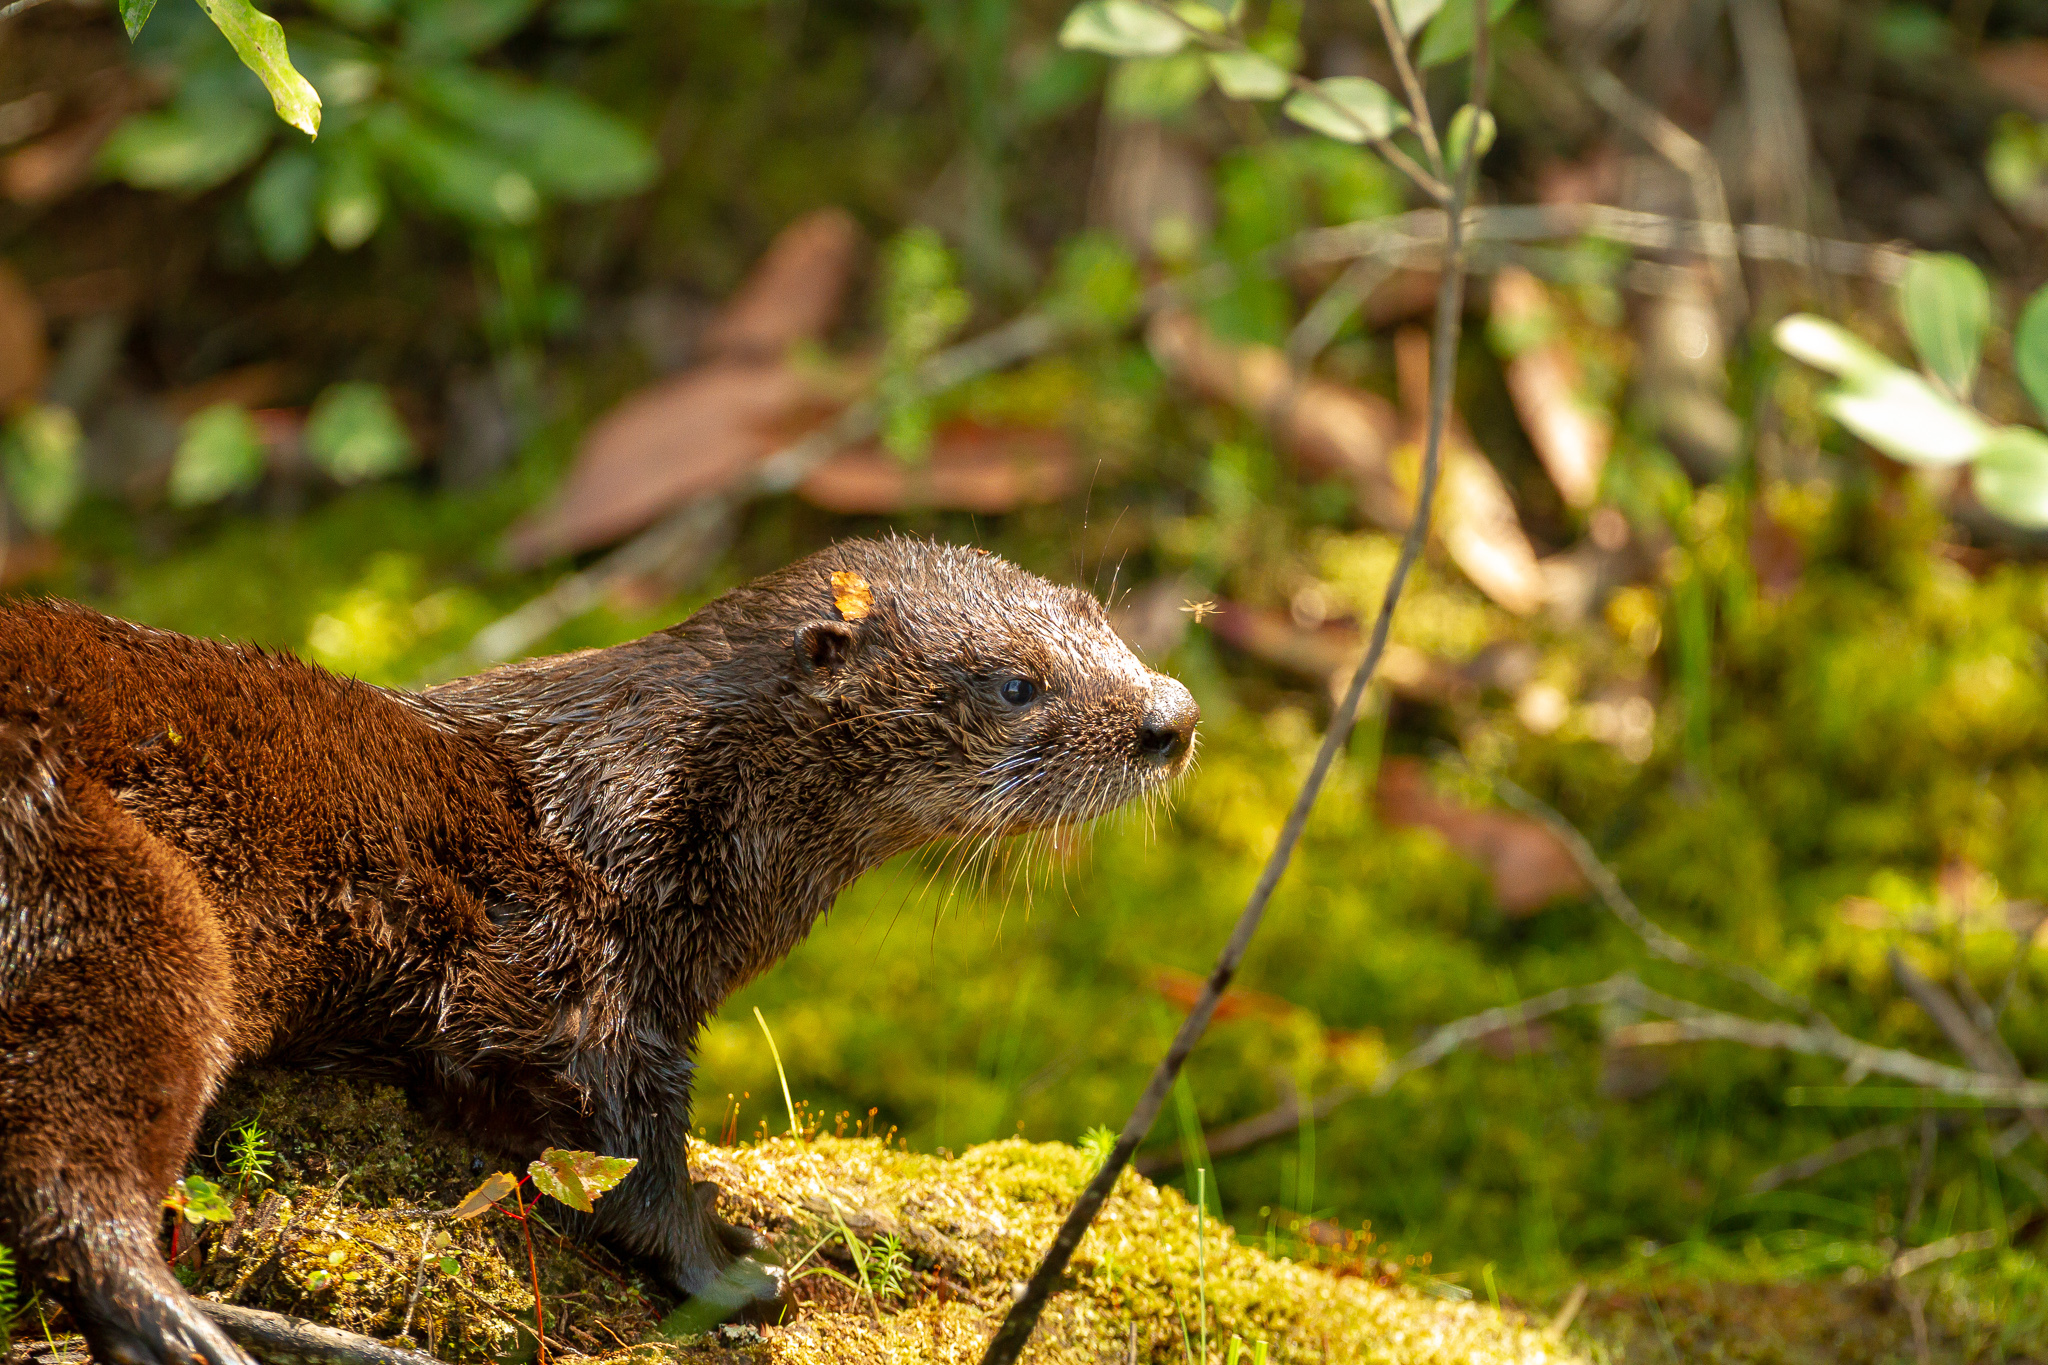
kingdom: Animalia
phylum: Chordata
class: Mammalia
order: Carnivora
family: Mustelidae
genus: Lontra
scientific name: Lontra canadensis
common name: North american river otter
